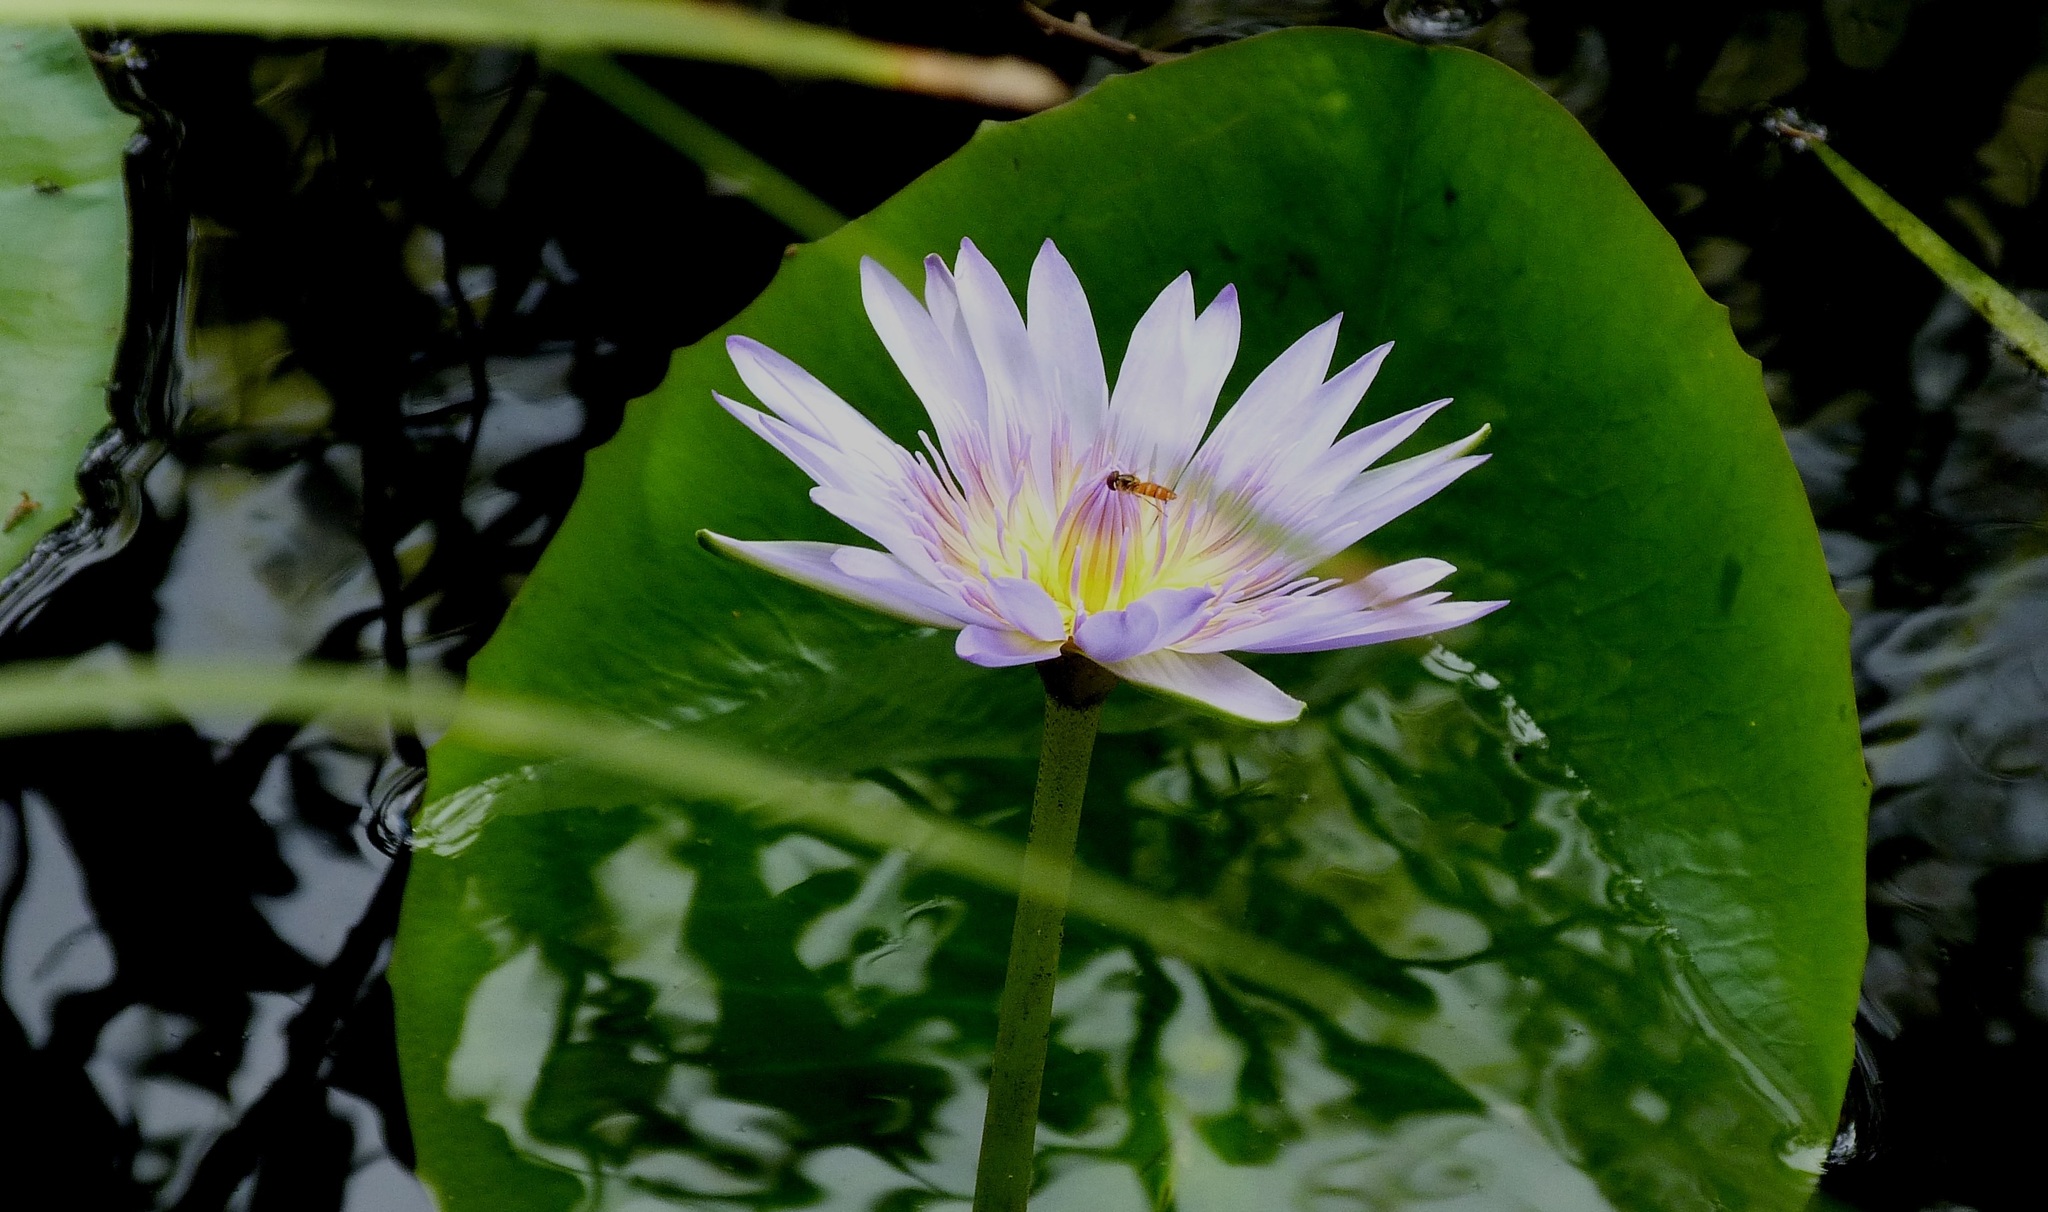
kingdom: Plantae
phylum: Tracheophyta
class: Magnoliopsida
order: Nymphaeales
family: Nymphaeaceae
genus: Nymphaea
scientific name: Nymphaea nouchali
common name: Blue lotus
